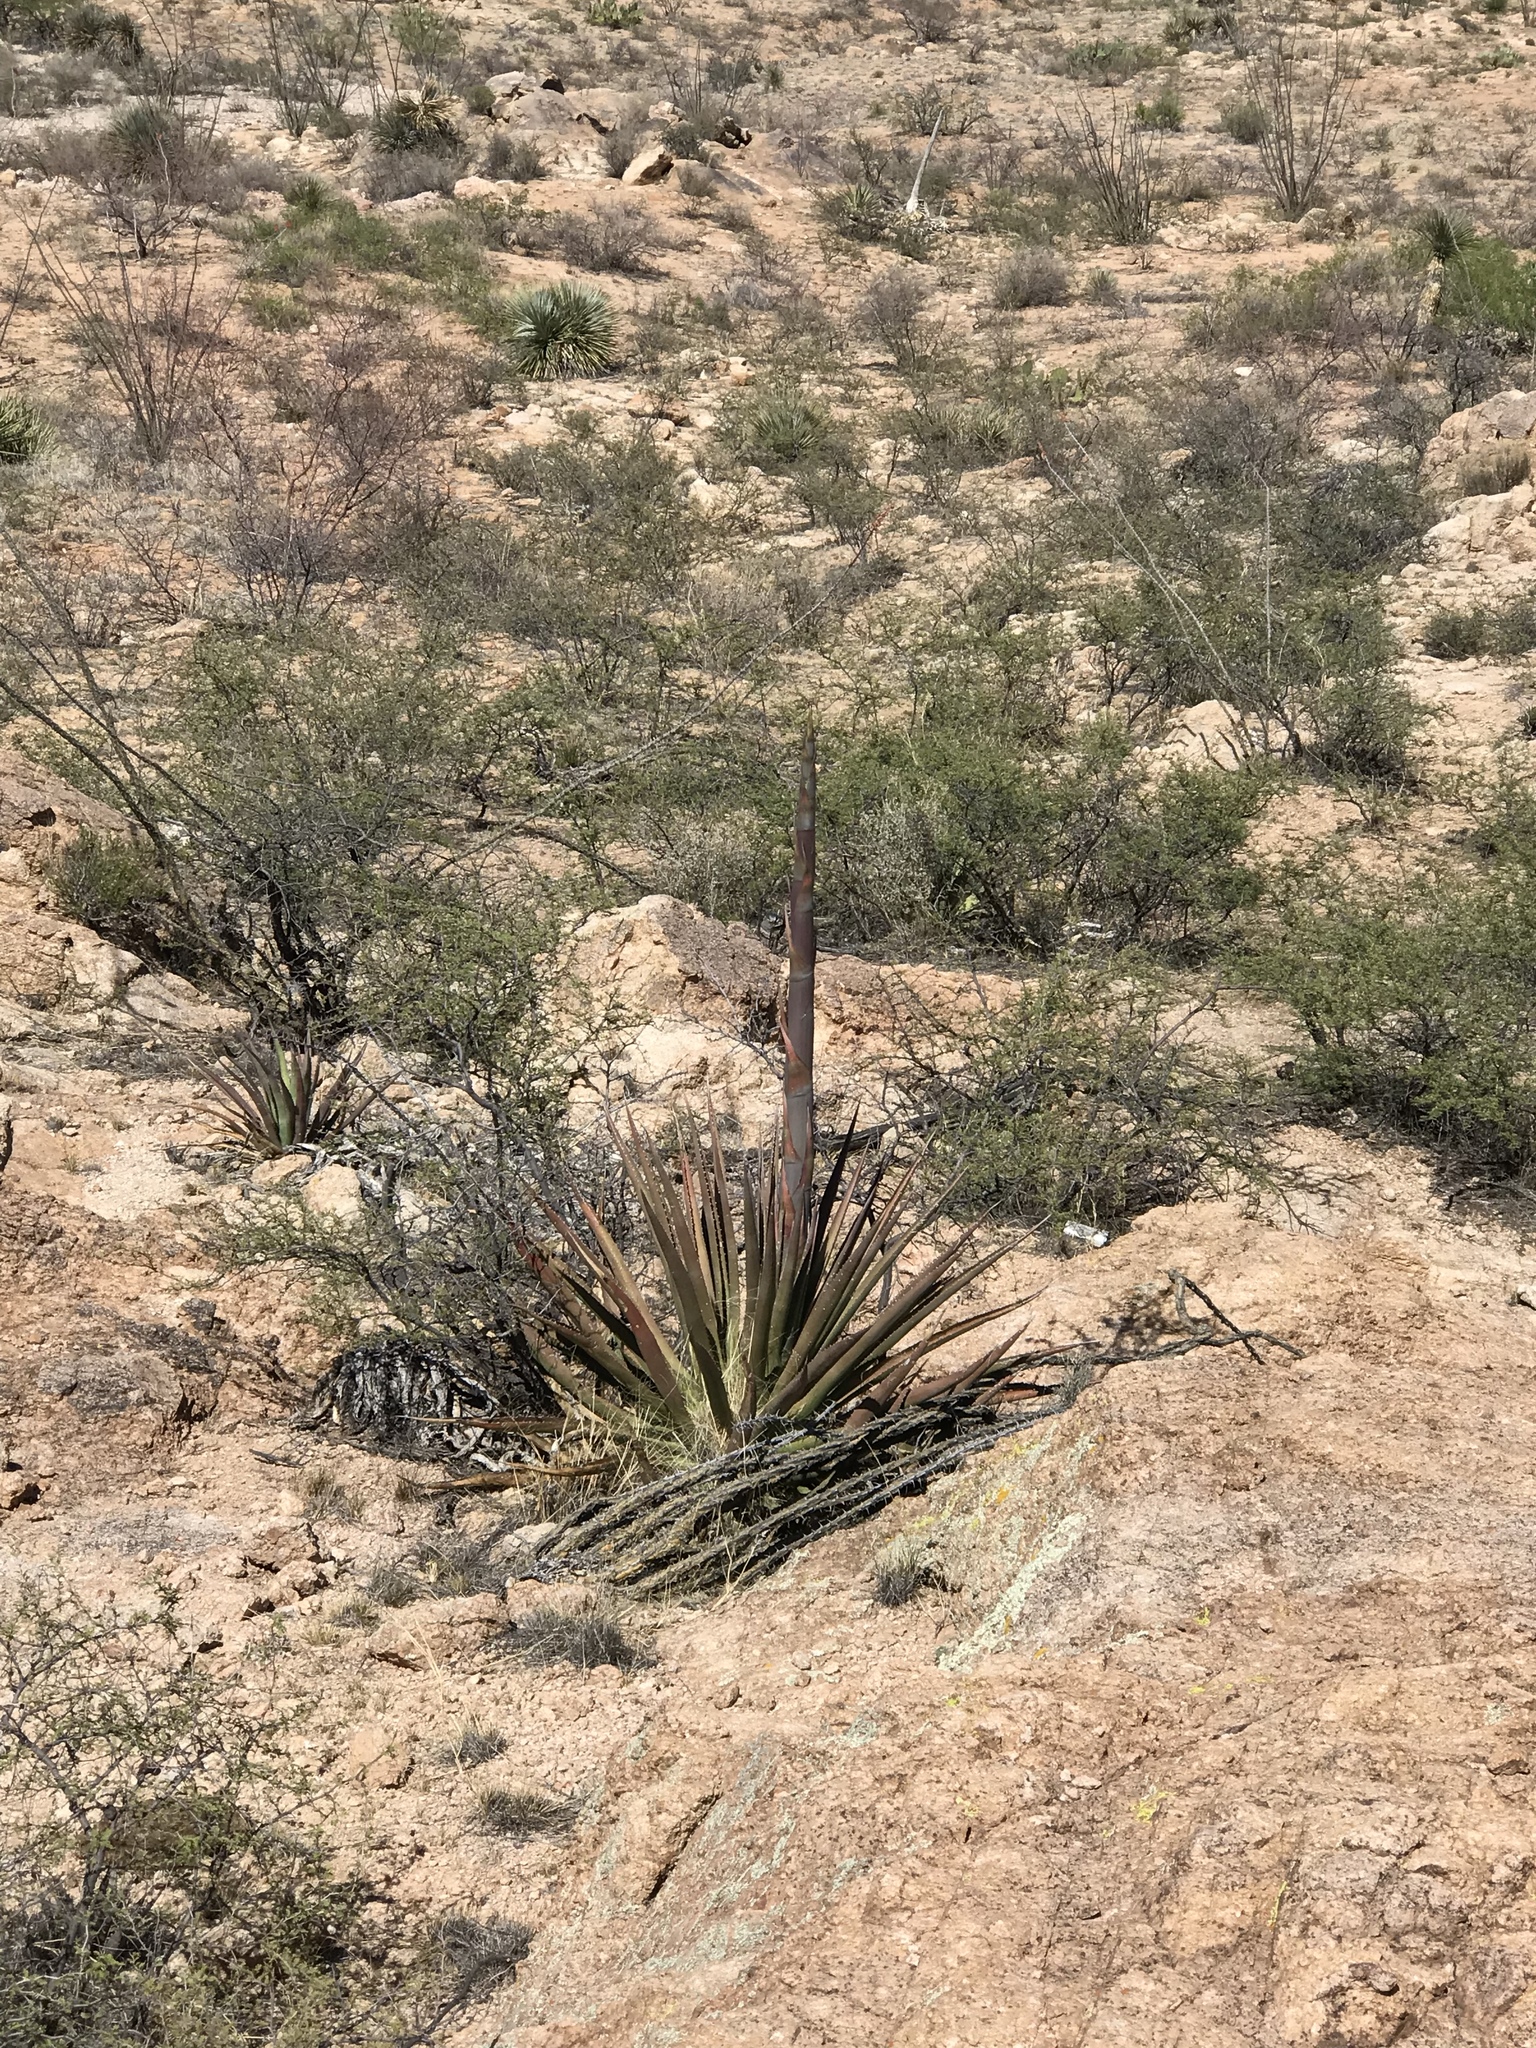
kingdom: Plantae
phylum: Tracheophyta
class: Liliopsida
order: Asparagales
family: Asparagaceae
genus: Agave
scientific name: Agave palmeri
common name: Palmer agave
